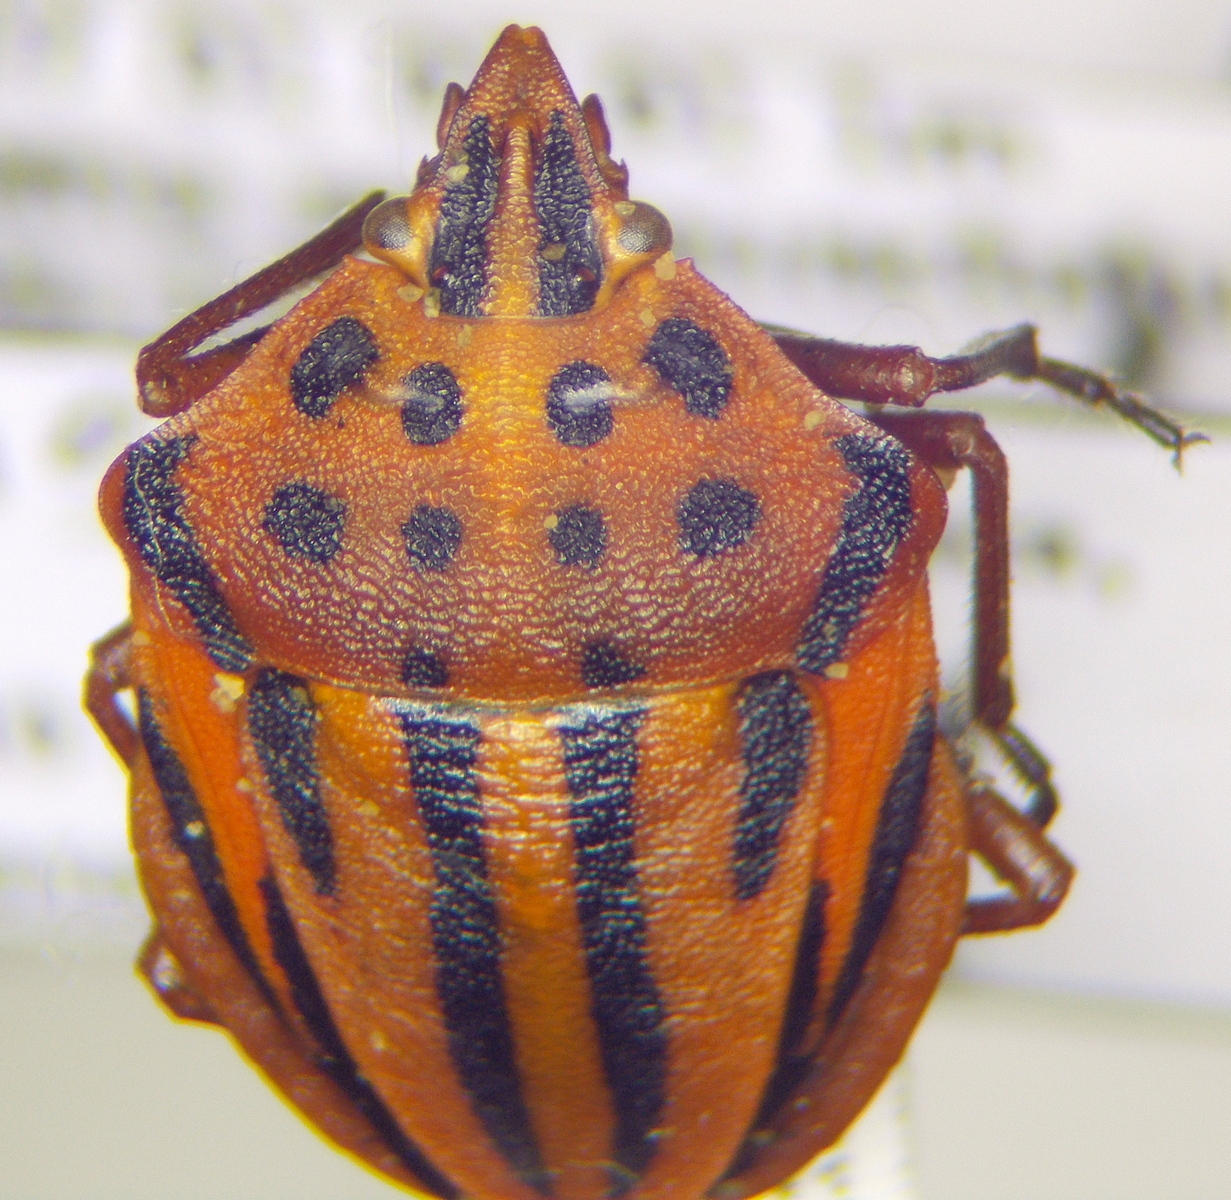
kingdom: Animalia
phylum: Arthropoda
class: Insecta
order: Hemiptera
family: Pentatomidae
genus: Graphosoma
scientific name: Graphosoma semipunctatum
